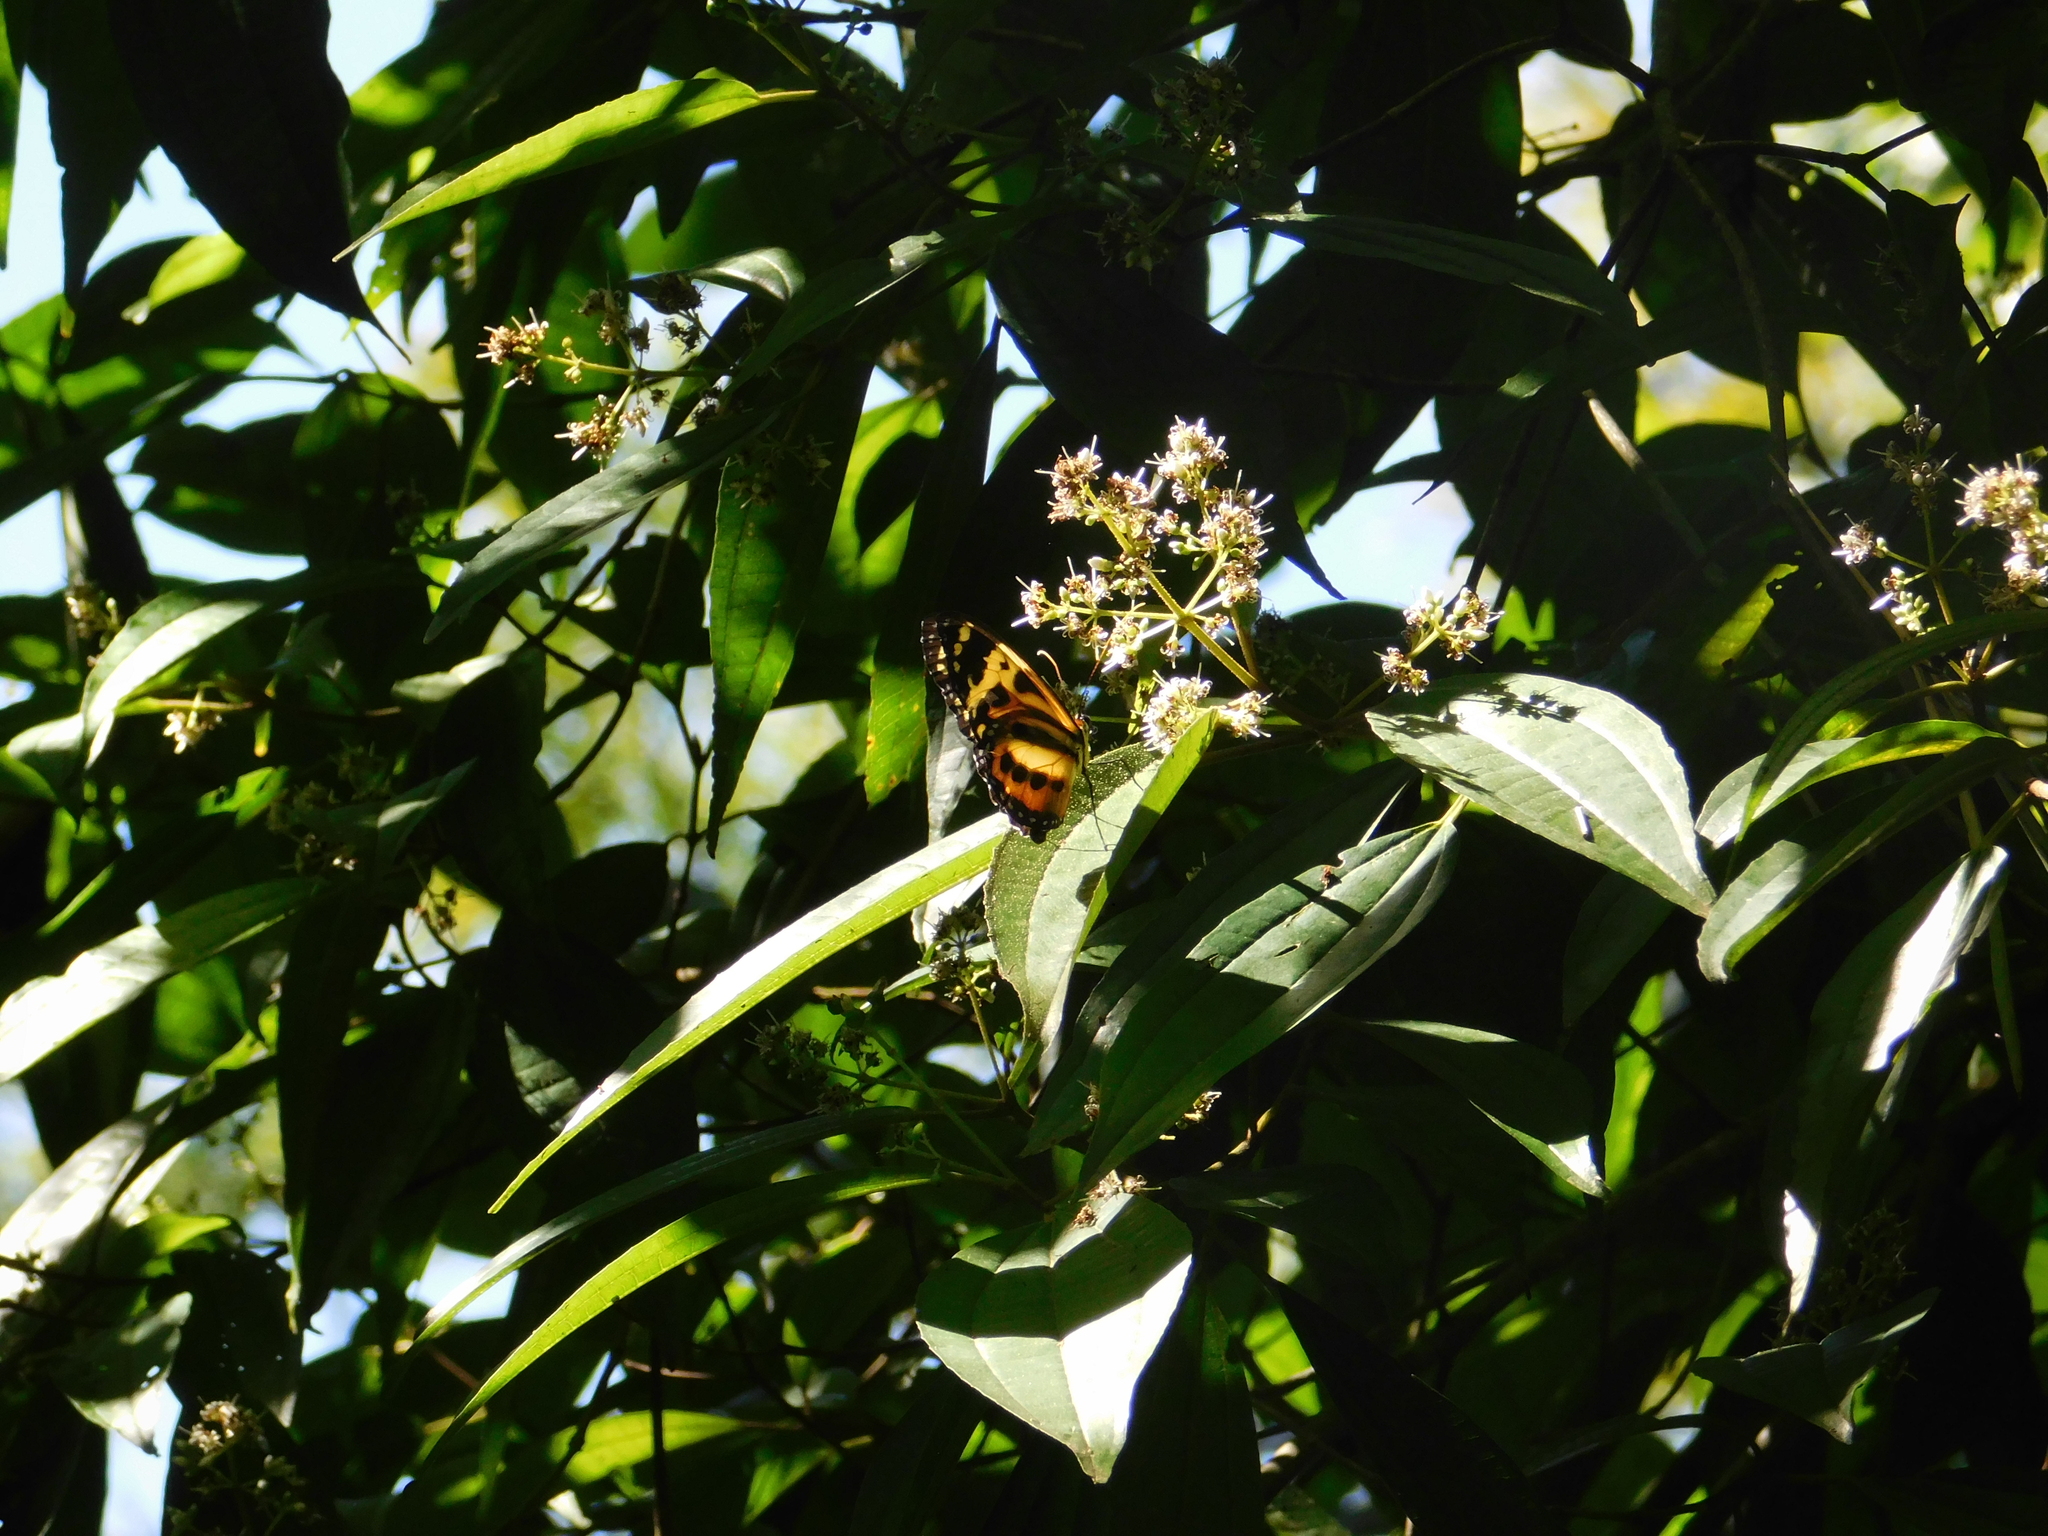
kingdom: Animalia
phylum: Arthropoda
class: Insecta
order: Lepidoptera
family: Nymphalidae
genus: Tithorea
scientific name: Tithorea harmonia
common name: Harmonia tigerwing
